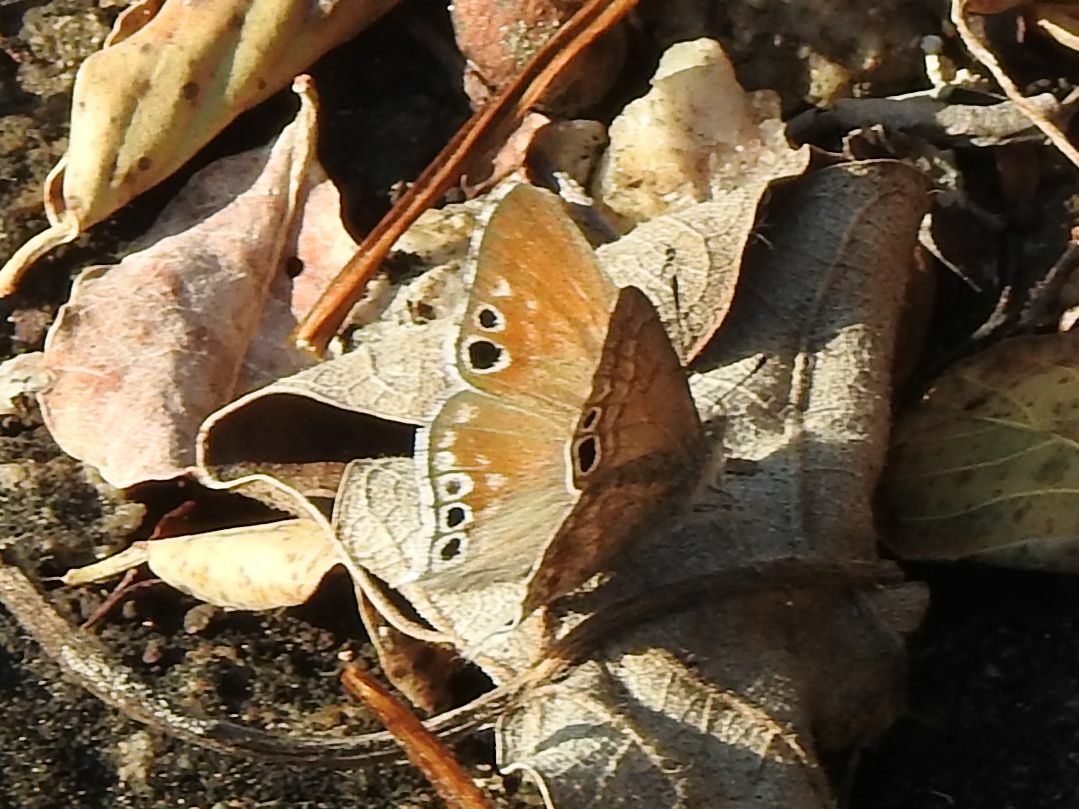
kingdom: Animalia
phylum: Arthropoda
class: Insecta
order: Lepidoptera
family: Lycaenidae
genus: Leptomyrina
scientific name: Leptomyrina gorgias
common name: Common black-eye
